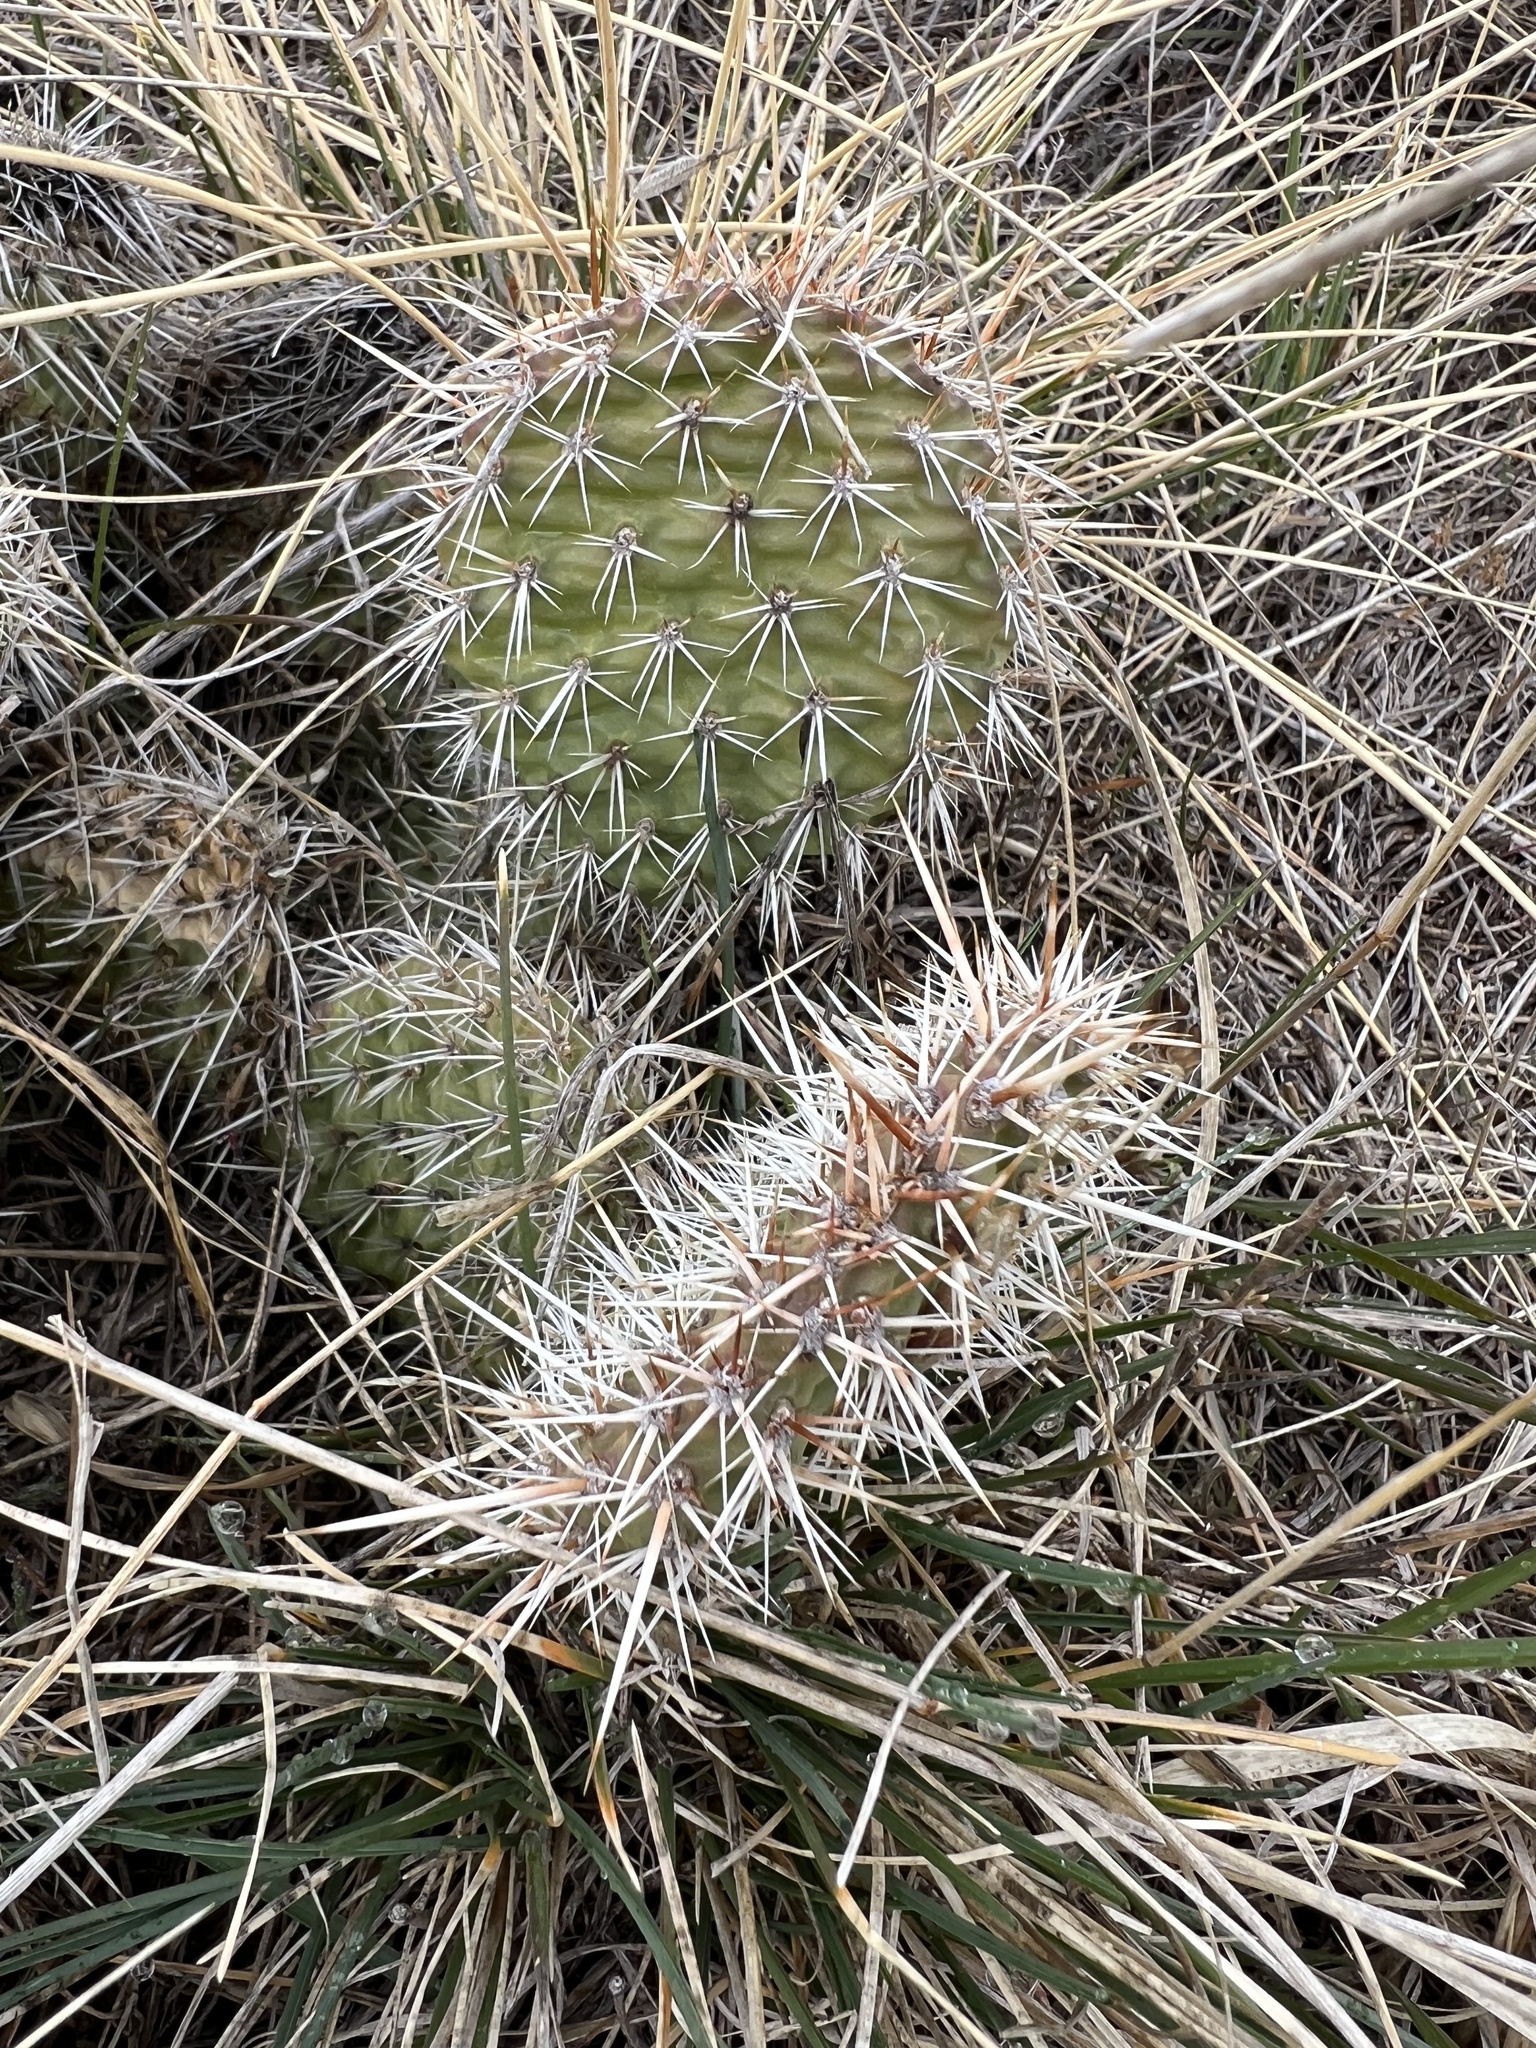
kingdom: Plantae
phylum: Tracheophyta
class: Magnoliopsida
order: Caryophyllales
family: Cactaceae
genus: Opuntia
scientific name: Opuntia polyacantha
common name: Plains prickly-pear
